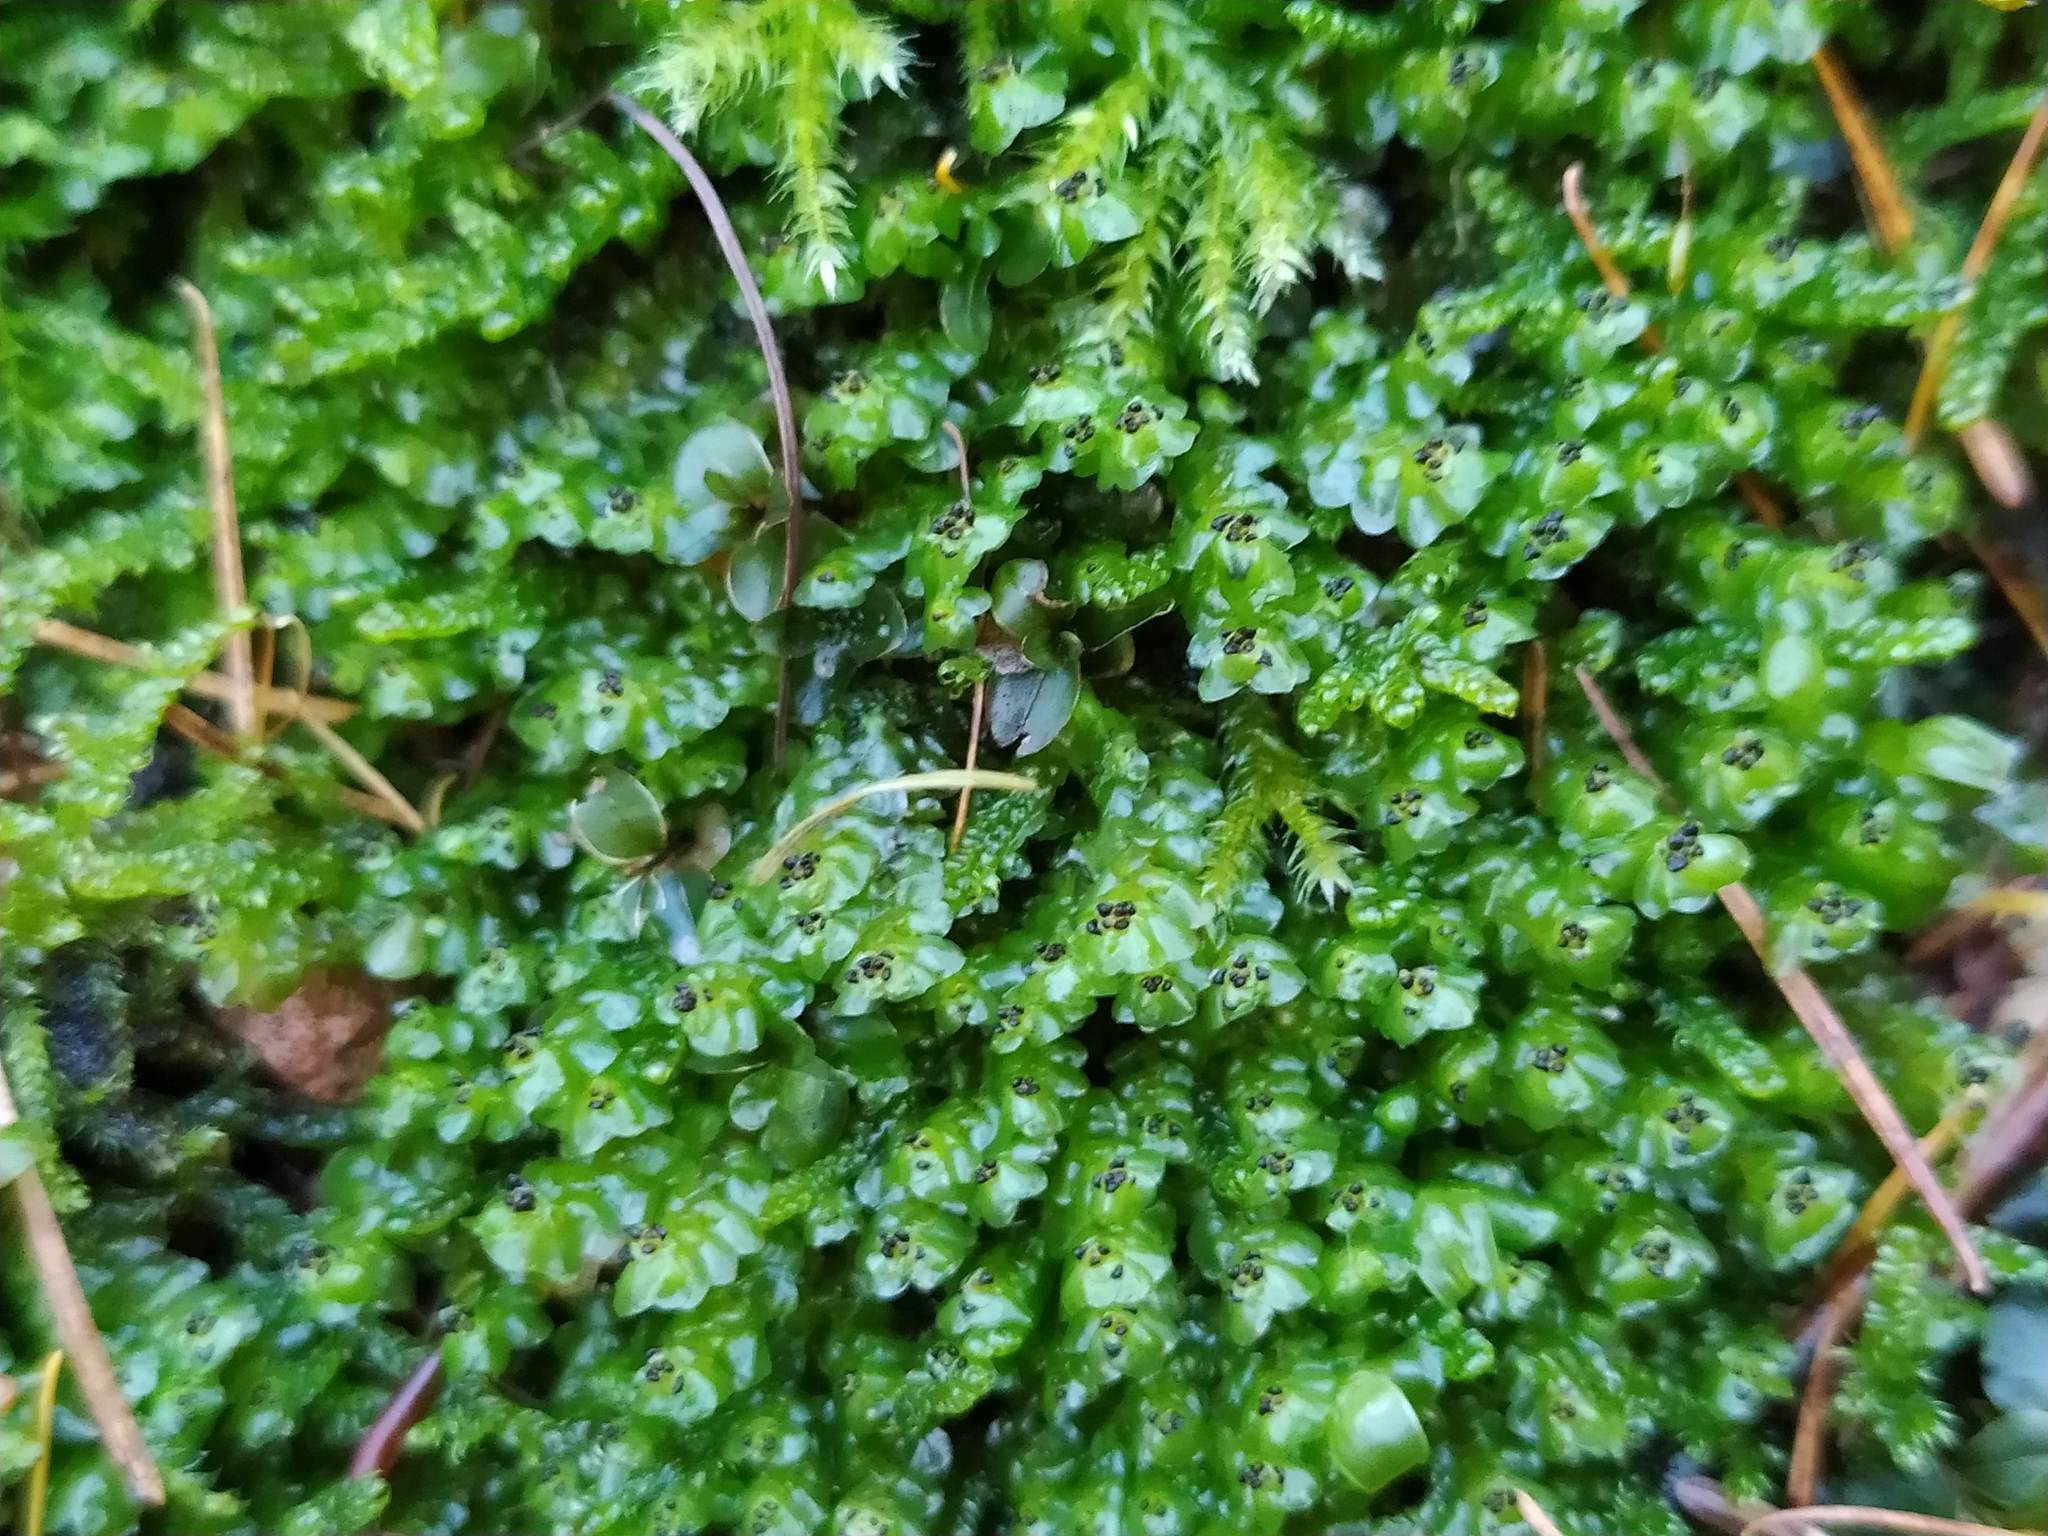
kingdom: Plantae
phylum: Marchantiophyta
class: Jungermanniopsida
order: Jungermanniales
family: Scapaniaceae
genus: Scapania
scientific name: Scapania nemorea
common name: Grove earwort
